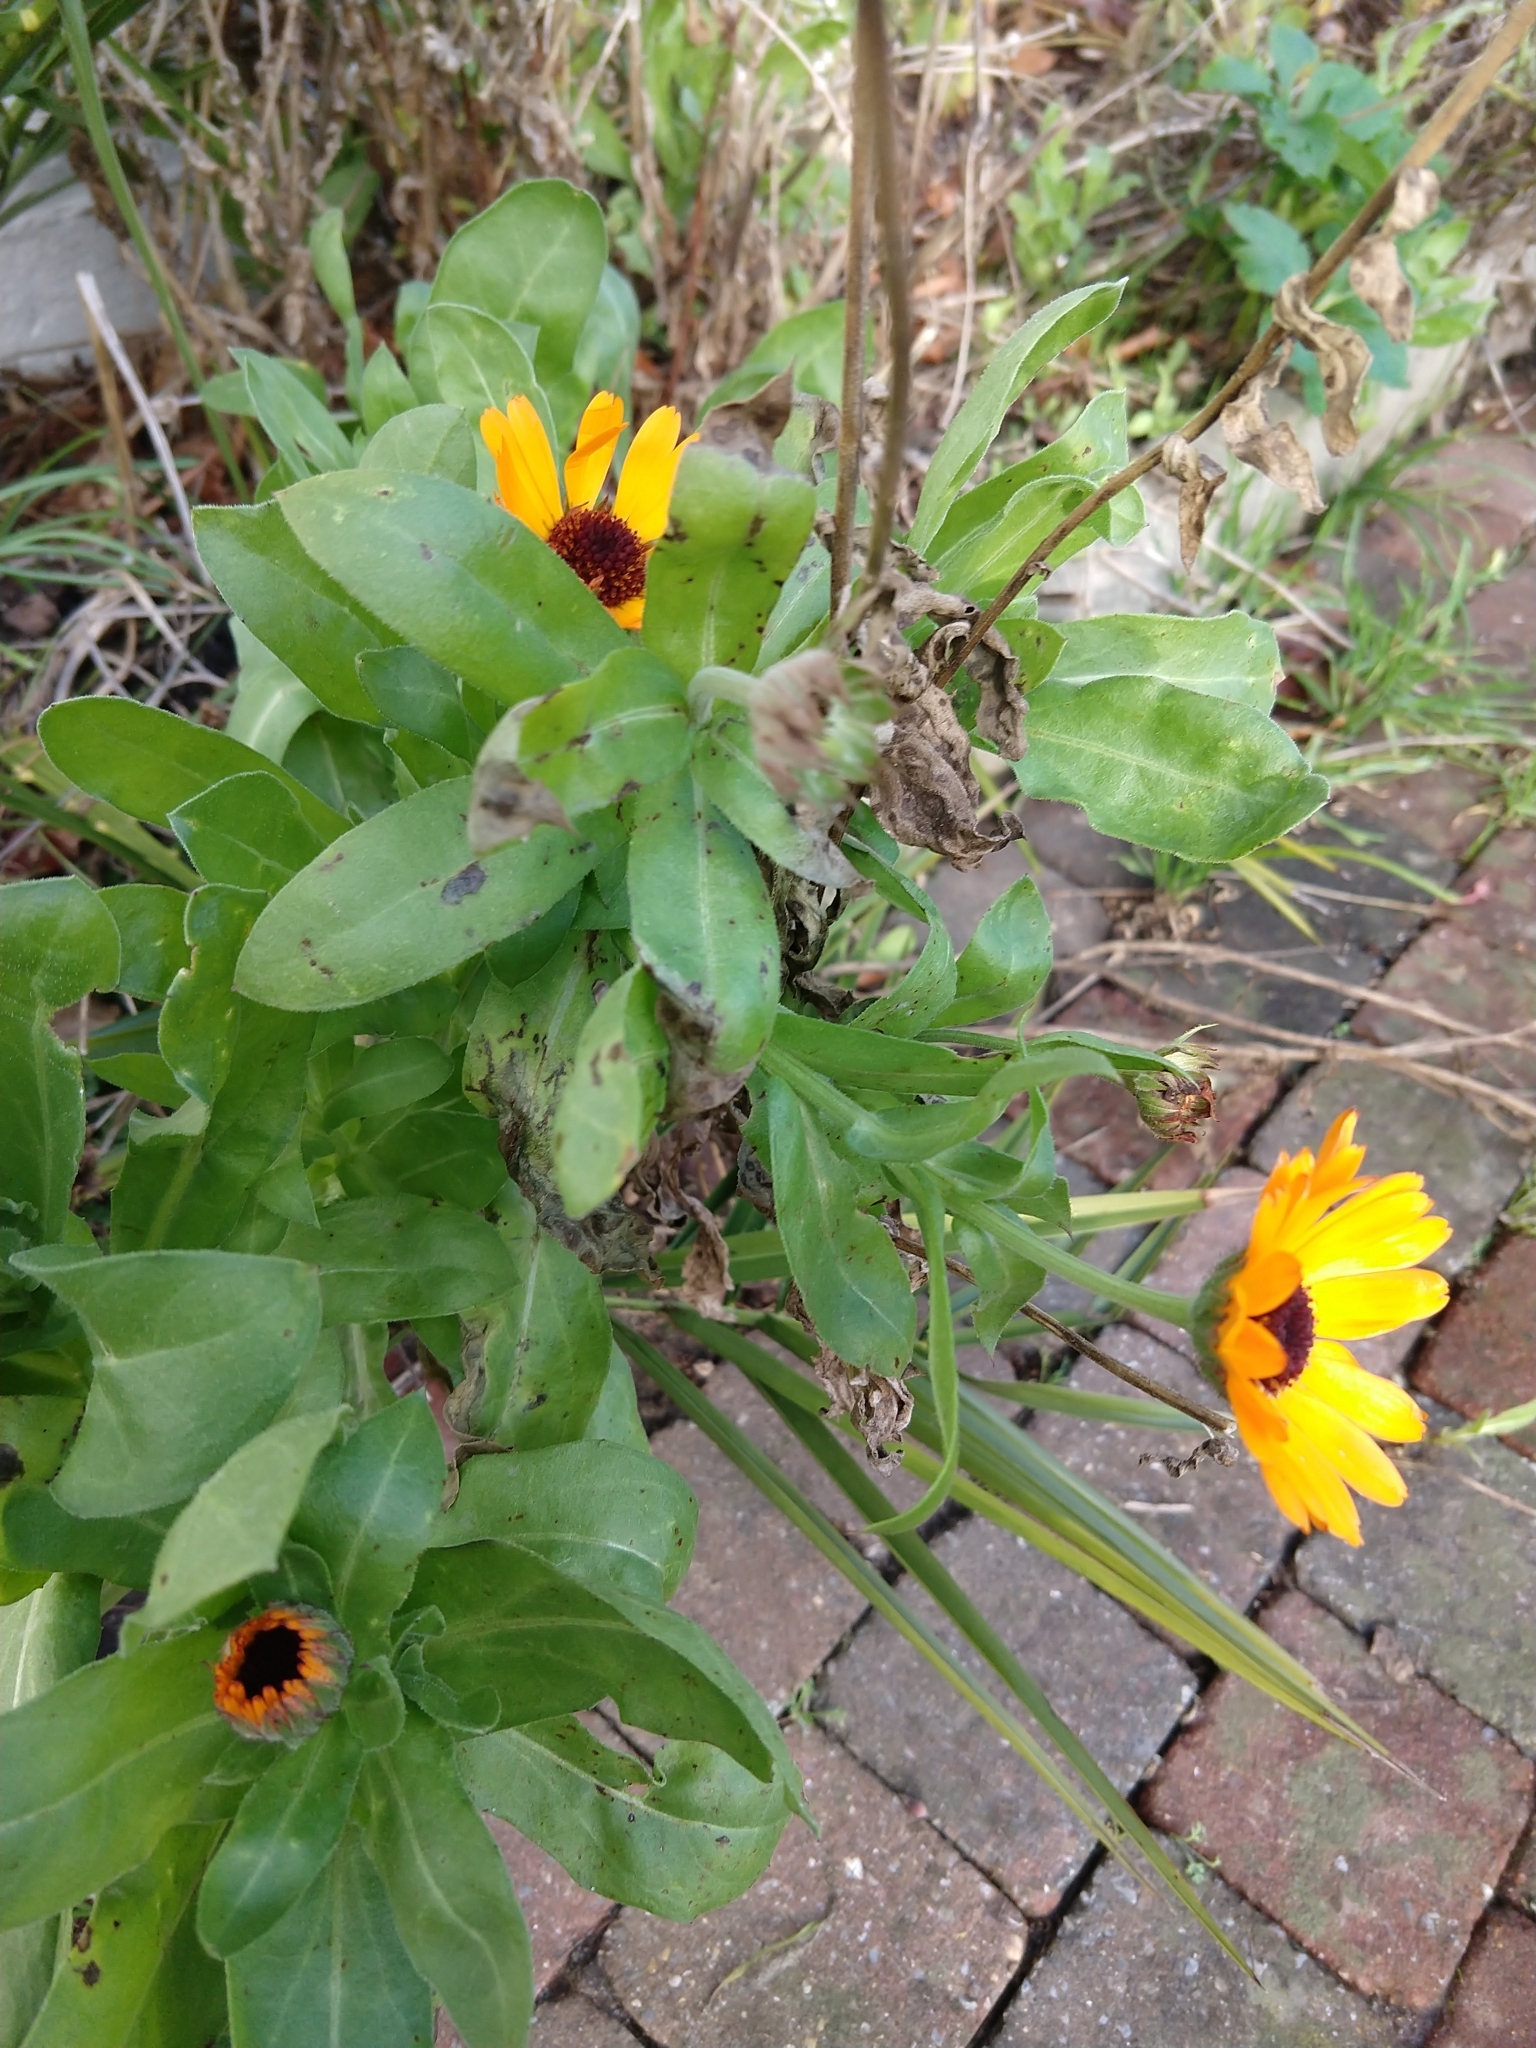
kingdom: Plantae
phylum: Tracheophyta
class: Magnoliopsida
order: Asterales
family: Asteraceae
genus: Calendula
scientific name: Calendula officinalis
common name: Pot marigold
